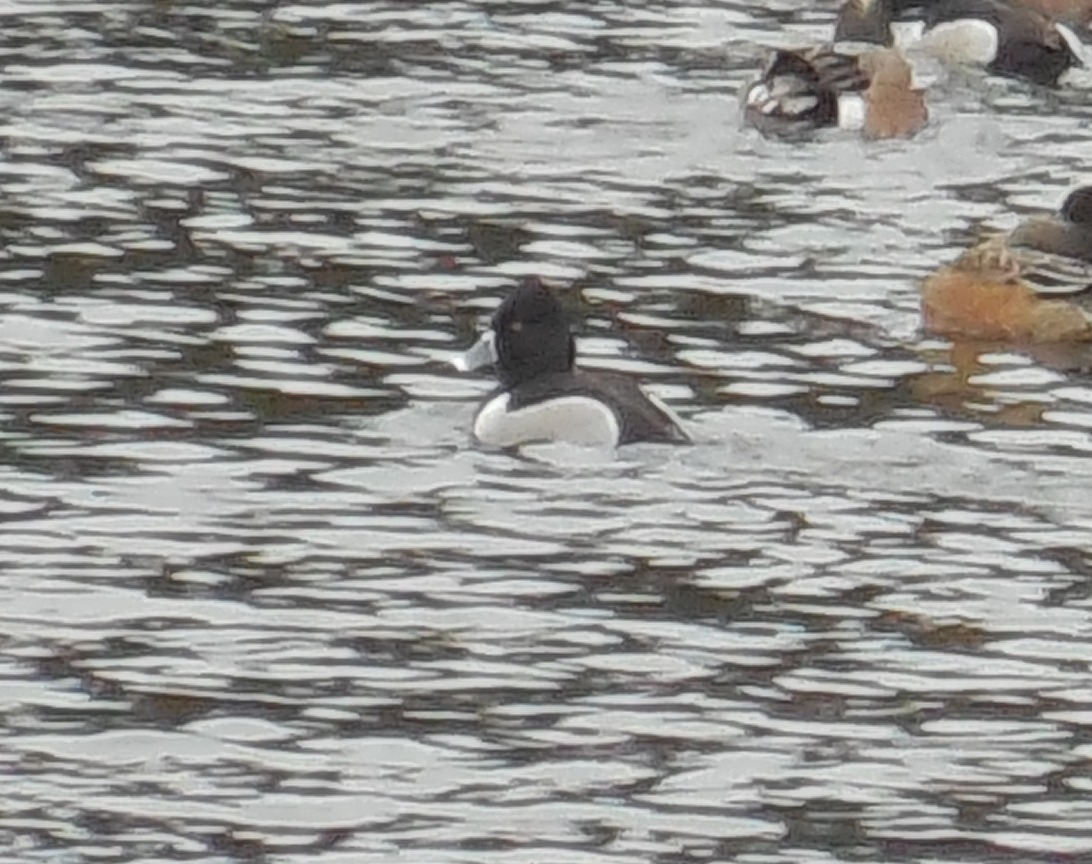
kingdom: Animalia
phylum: Chordata
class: Aves
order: Anseriformes
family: Anatidae
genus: Aythya
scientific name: Aythya collaris
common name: Ring-necked duck
